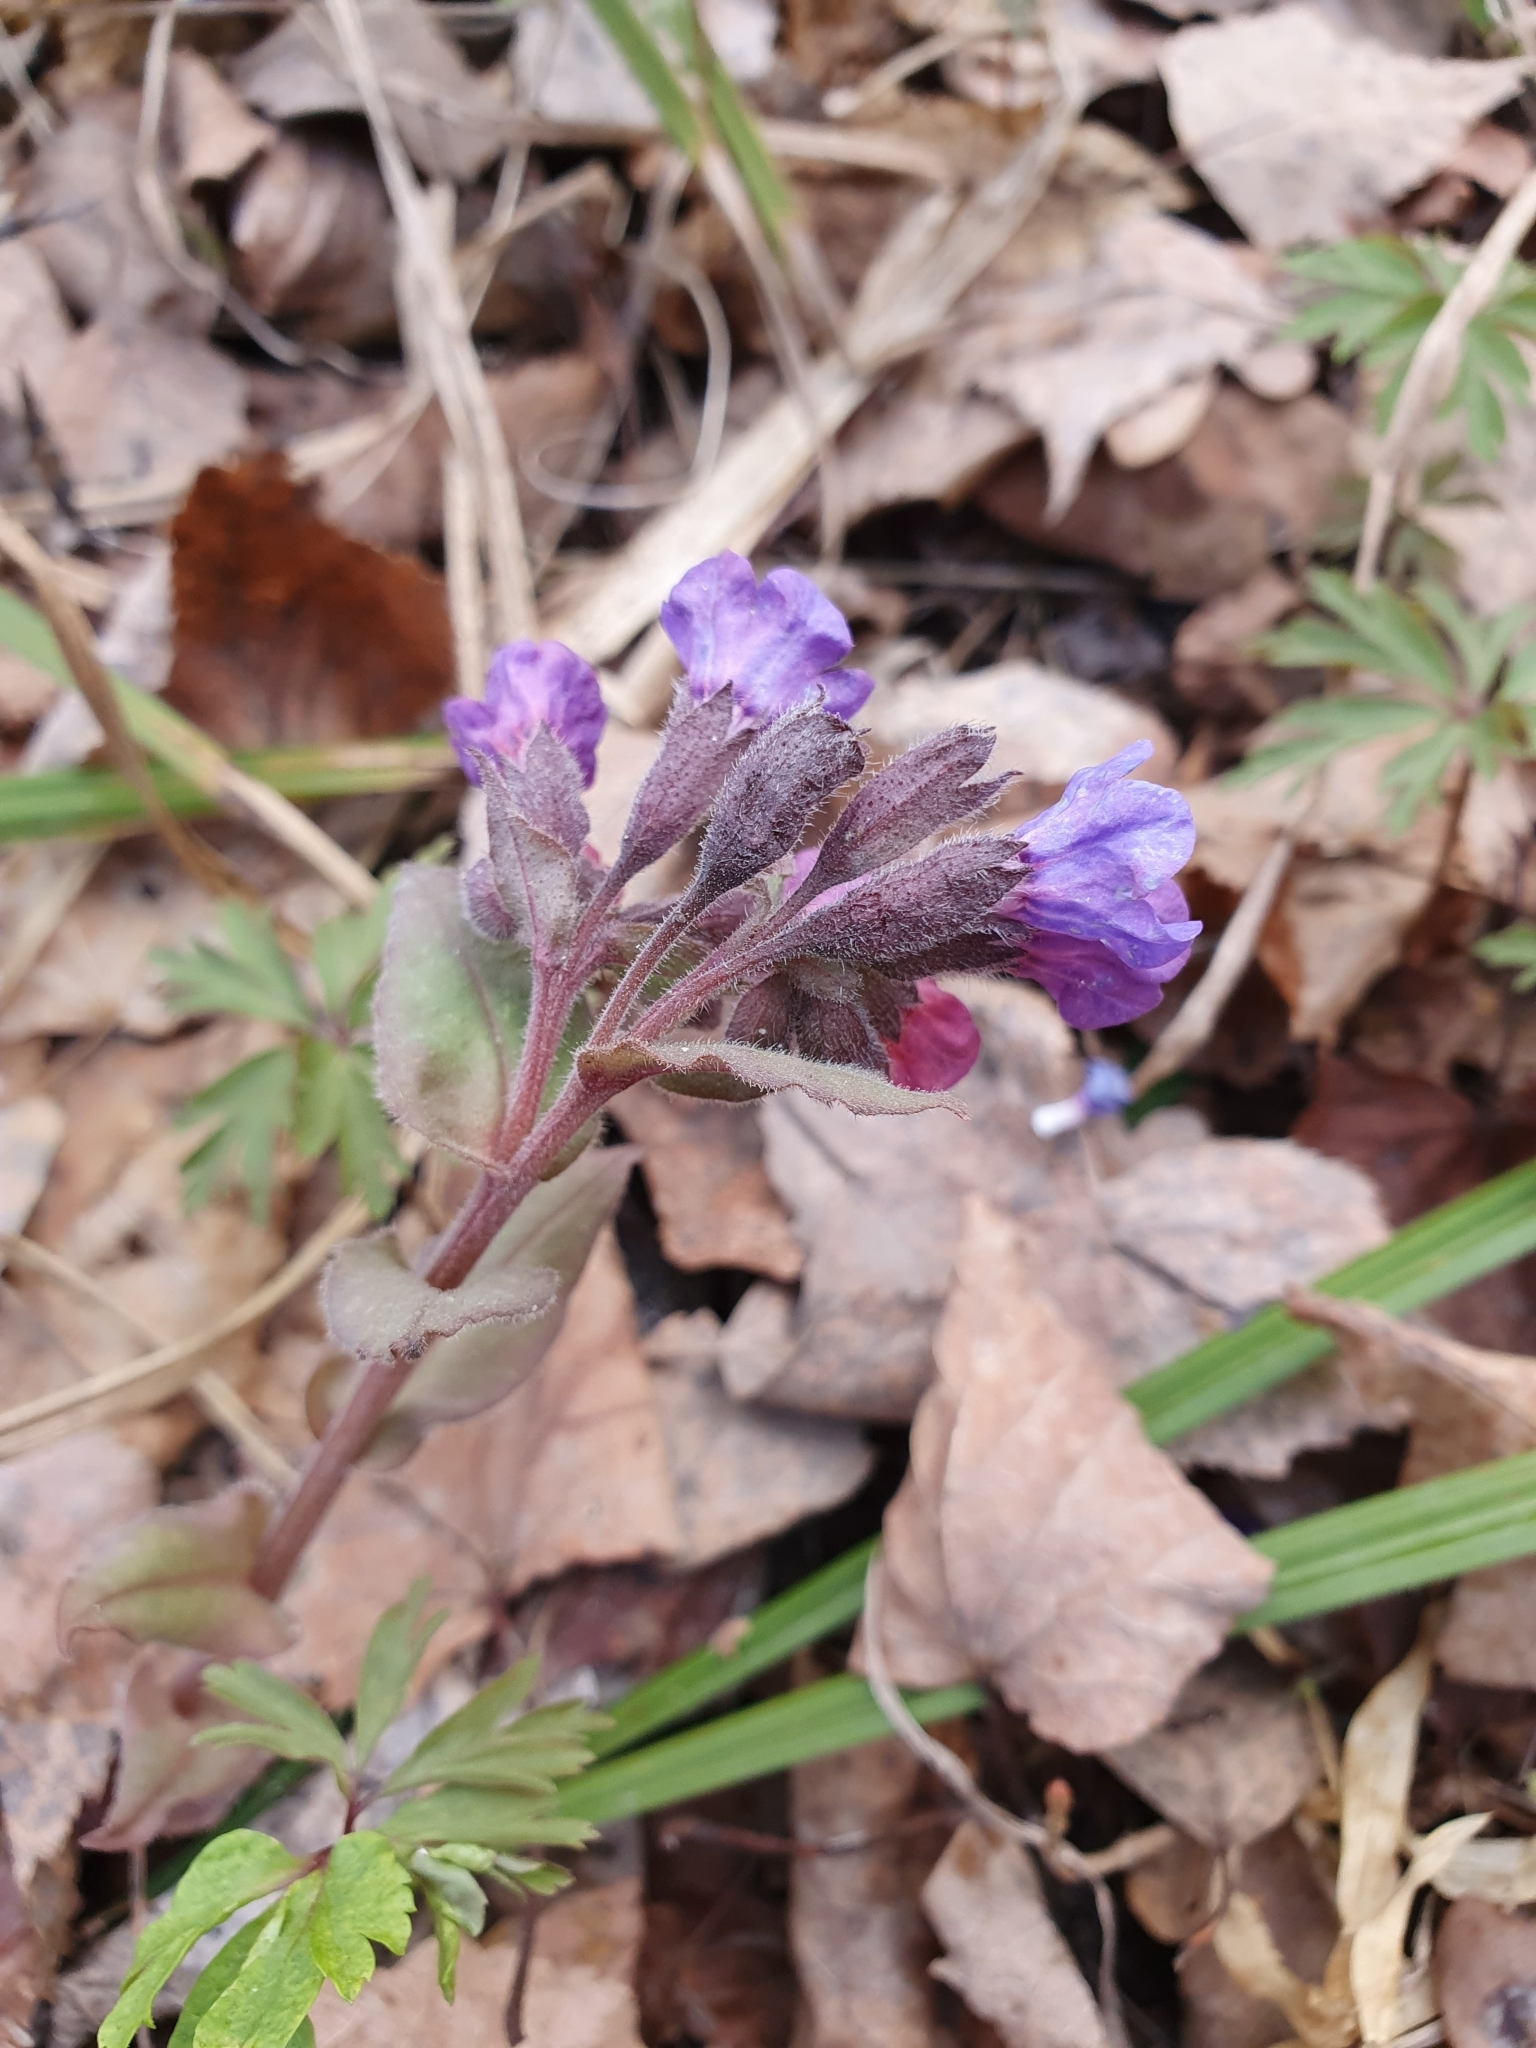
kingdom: Plantae
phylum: Tracheophyta
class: Magnoliopsida
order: Boraginales
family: Boraginaceae
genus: Pulmonaria
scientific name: Pulmonaria obscura
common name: Suffolk lungwort
